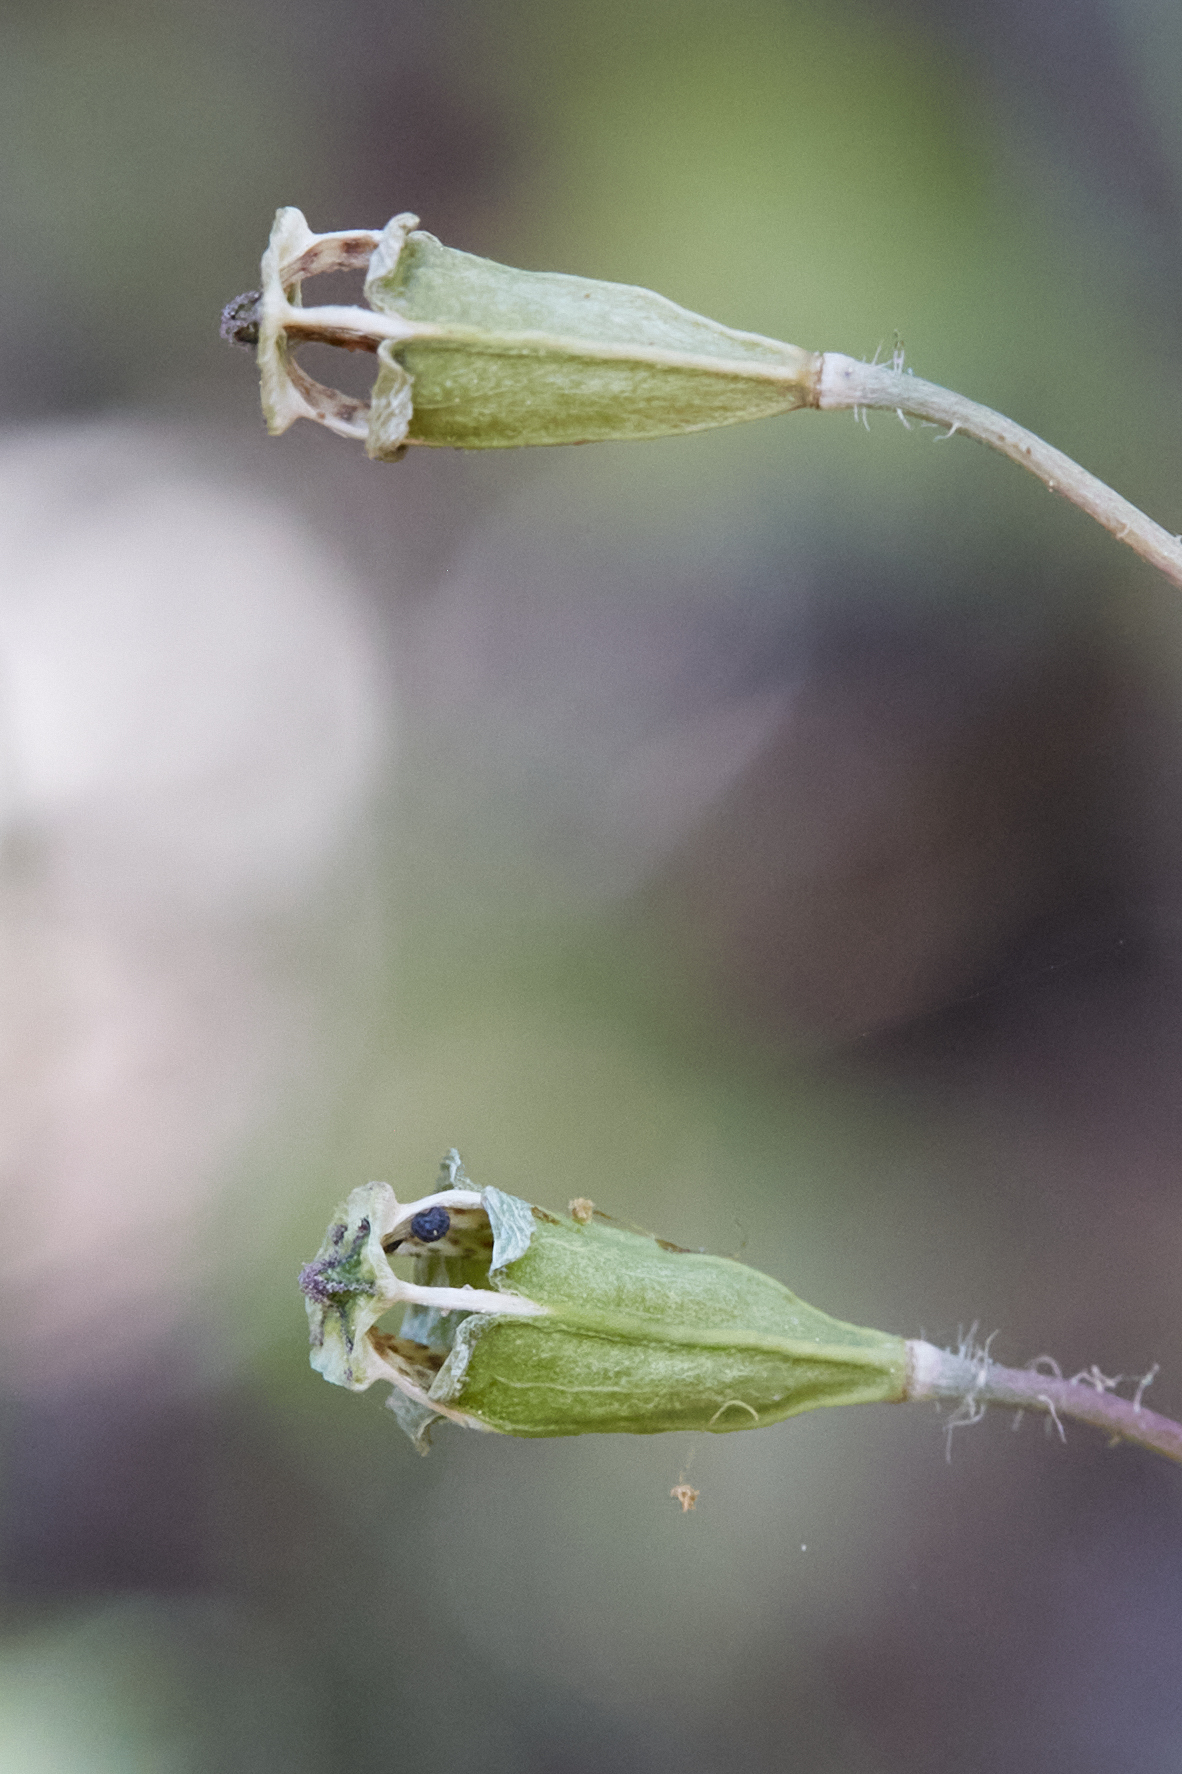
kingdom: Plantae
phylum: Tracheophyta
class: Magnoliopsida
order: Ranunculales
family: Papaveraceae
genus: Papaver
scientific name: Papaver californicum
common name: Fire poppy
